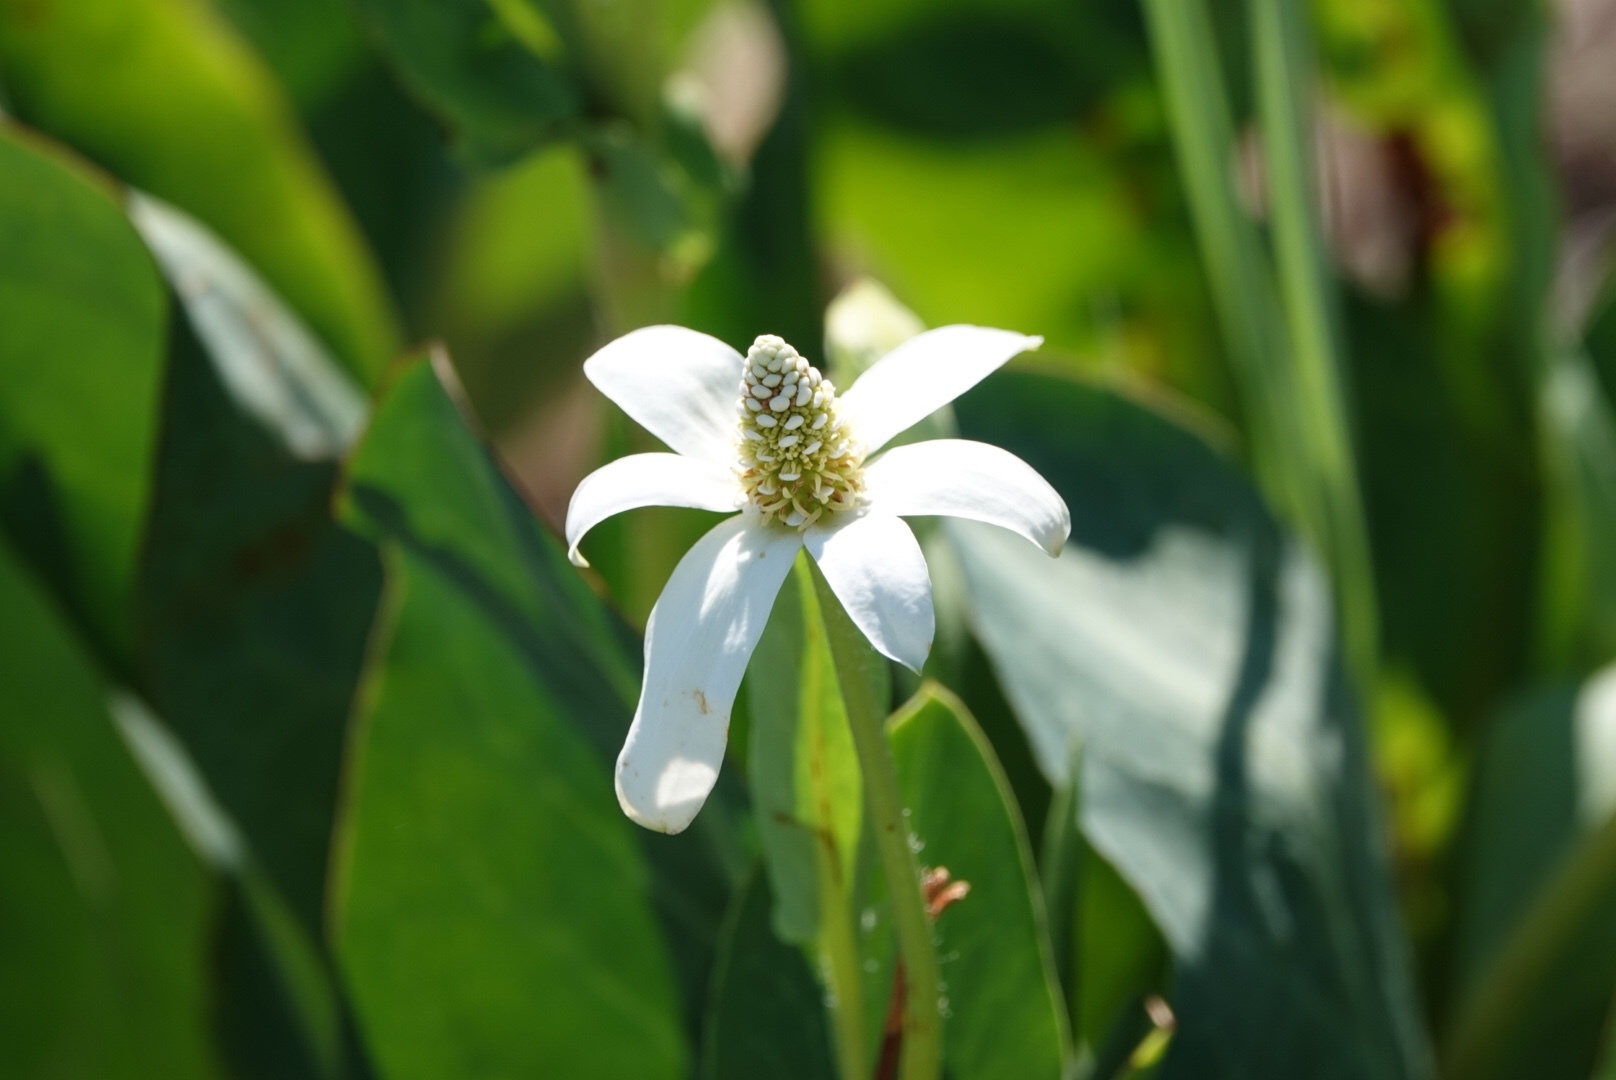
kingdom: Plantae
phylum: Tracheophyta
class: Magnoliopsida
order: Piperales
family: Saururaceae
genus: Anemopsis
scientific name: Anemopsis californica
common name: Apache-beads
